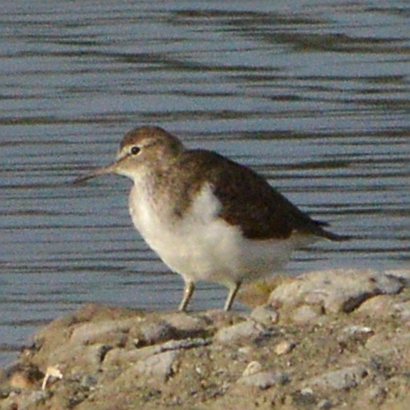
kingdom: Animalia
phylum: Chordata
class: Aves
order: Charadriiformes
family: Scolopacidae
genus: Actitis
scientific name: Actitis hypoleucos
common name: Common sandpiper
